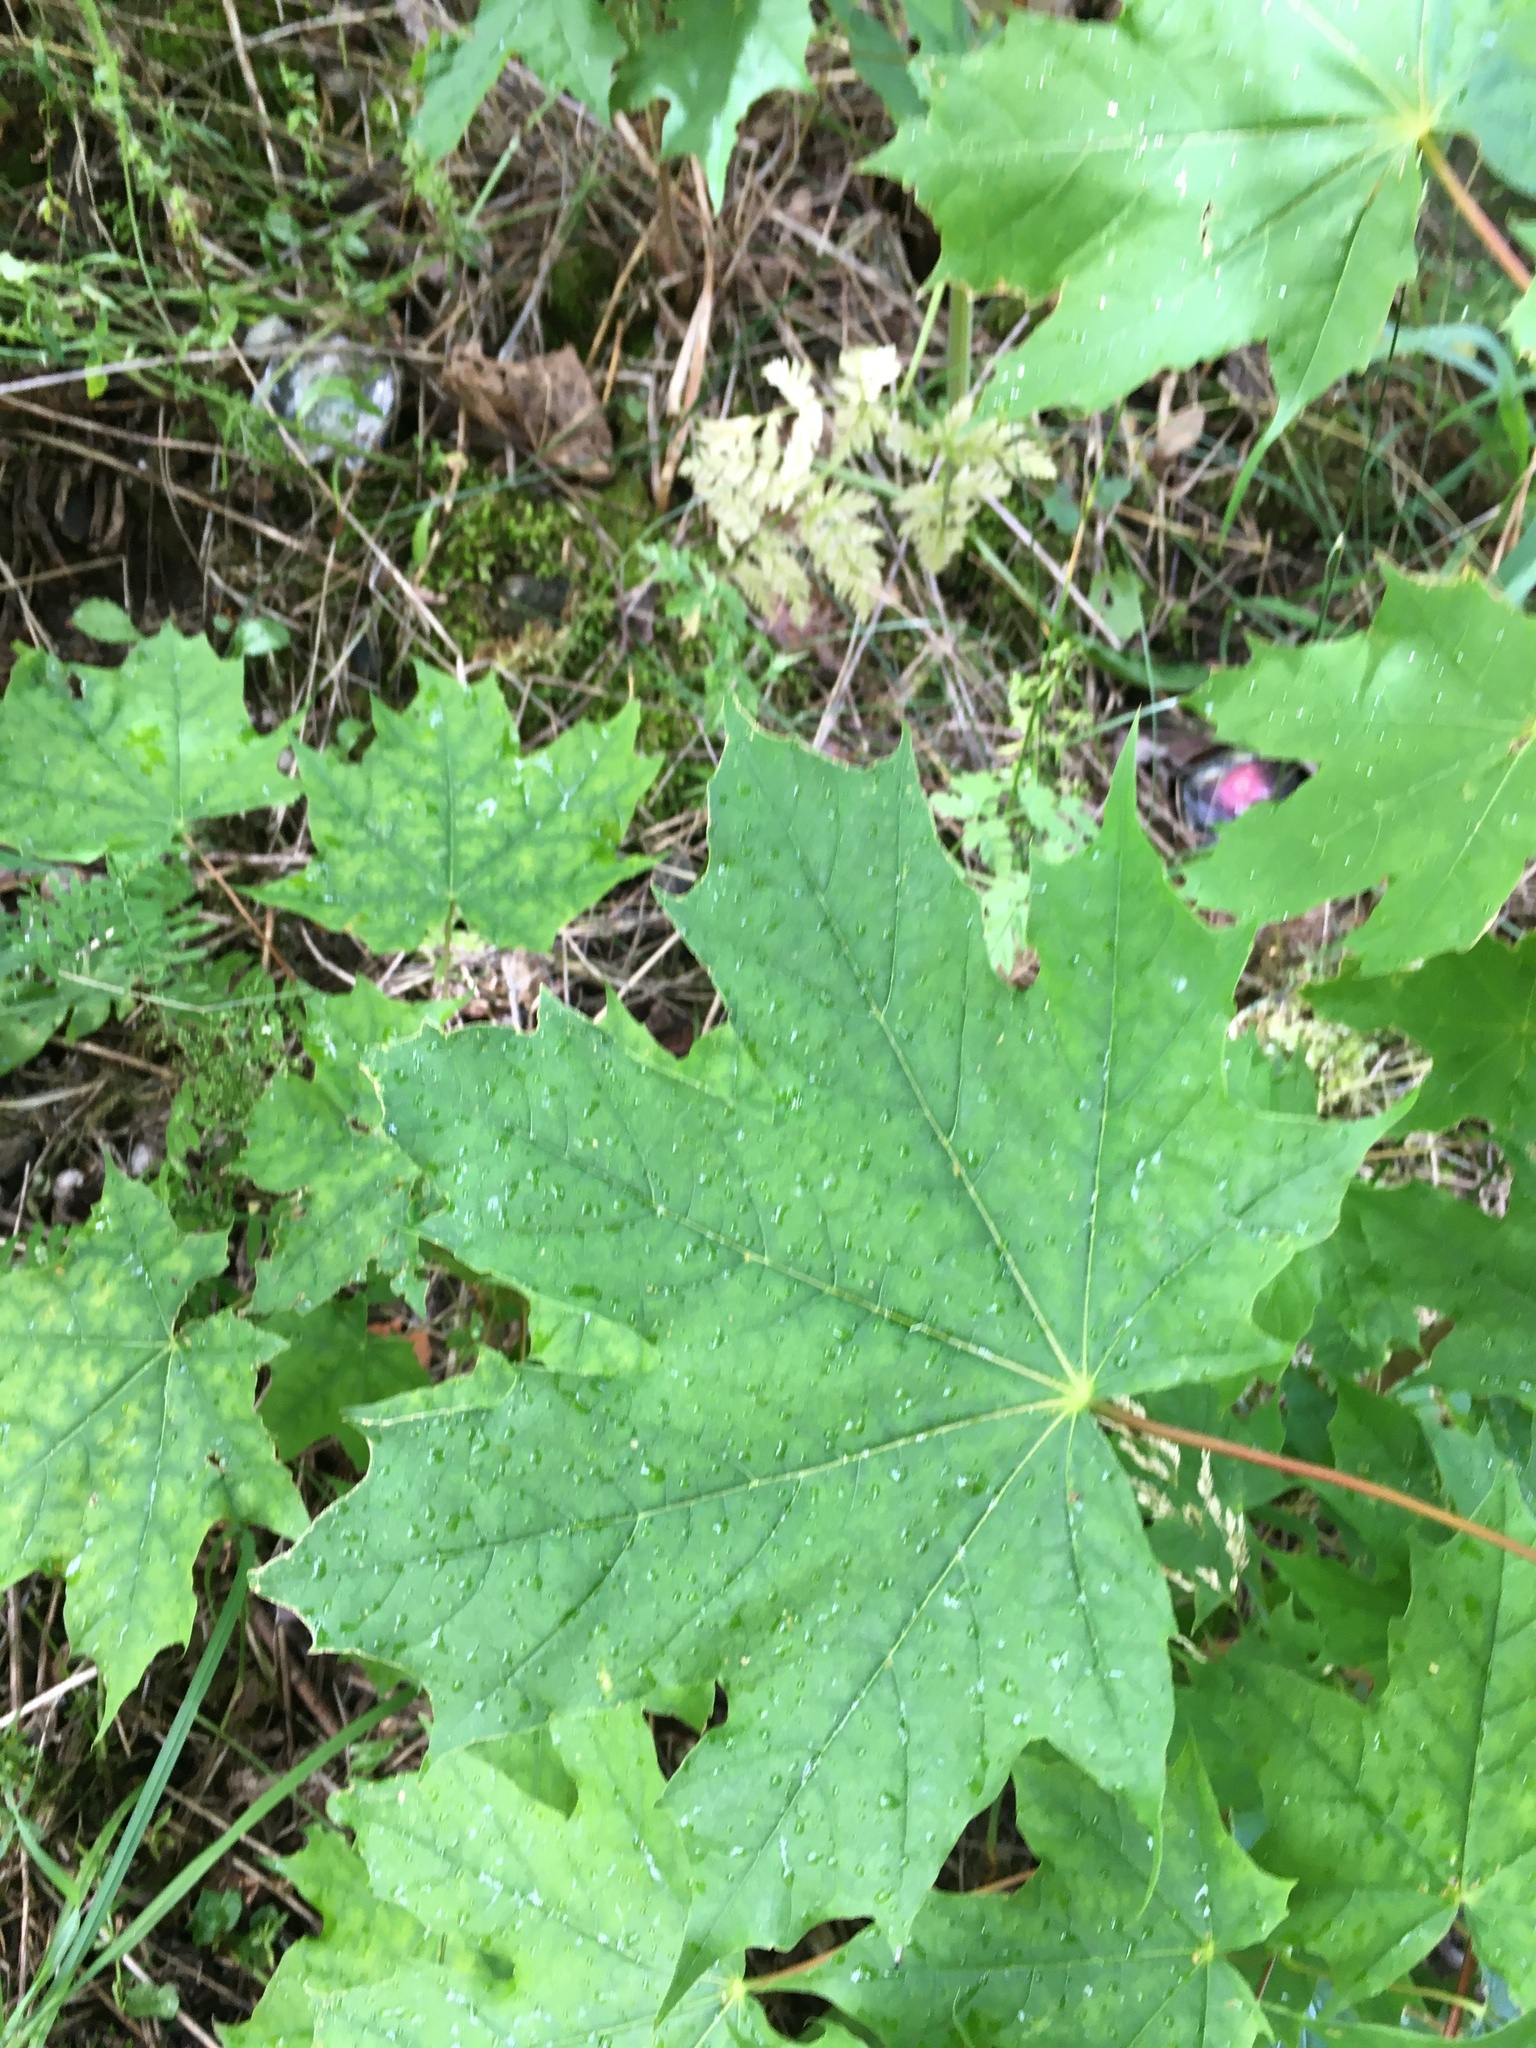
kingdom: Plantae
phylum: Tracheophyta
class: Magnoliopsida
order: Sapindales
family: Sapindaceae
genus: Acer
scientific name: Acer platanoides
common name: Norway maple
